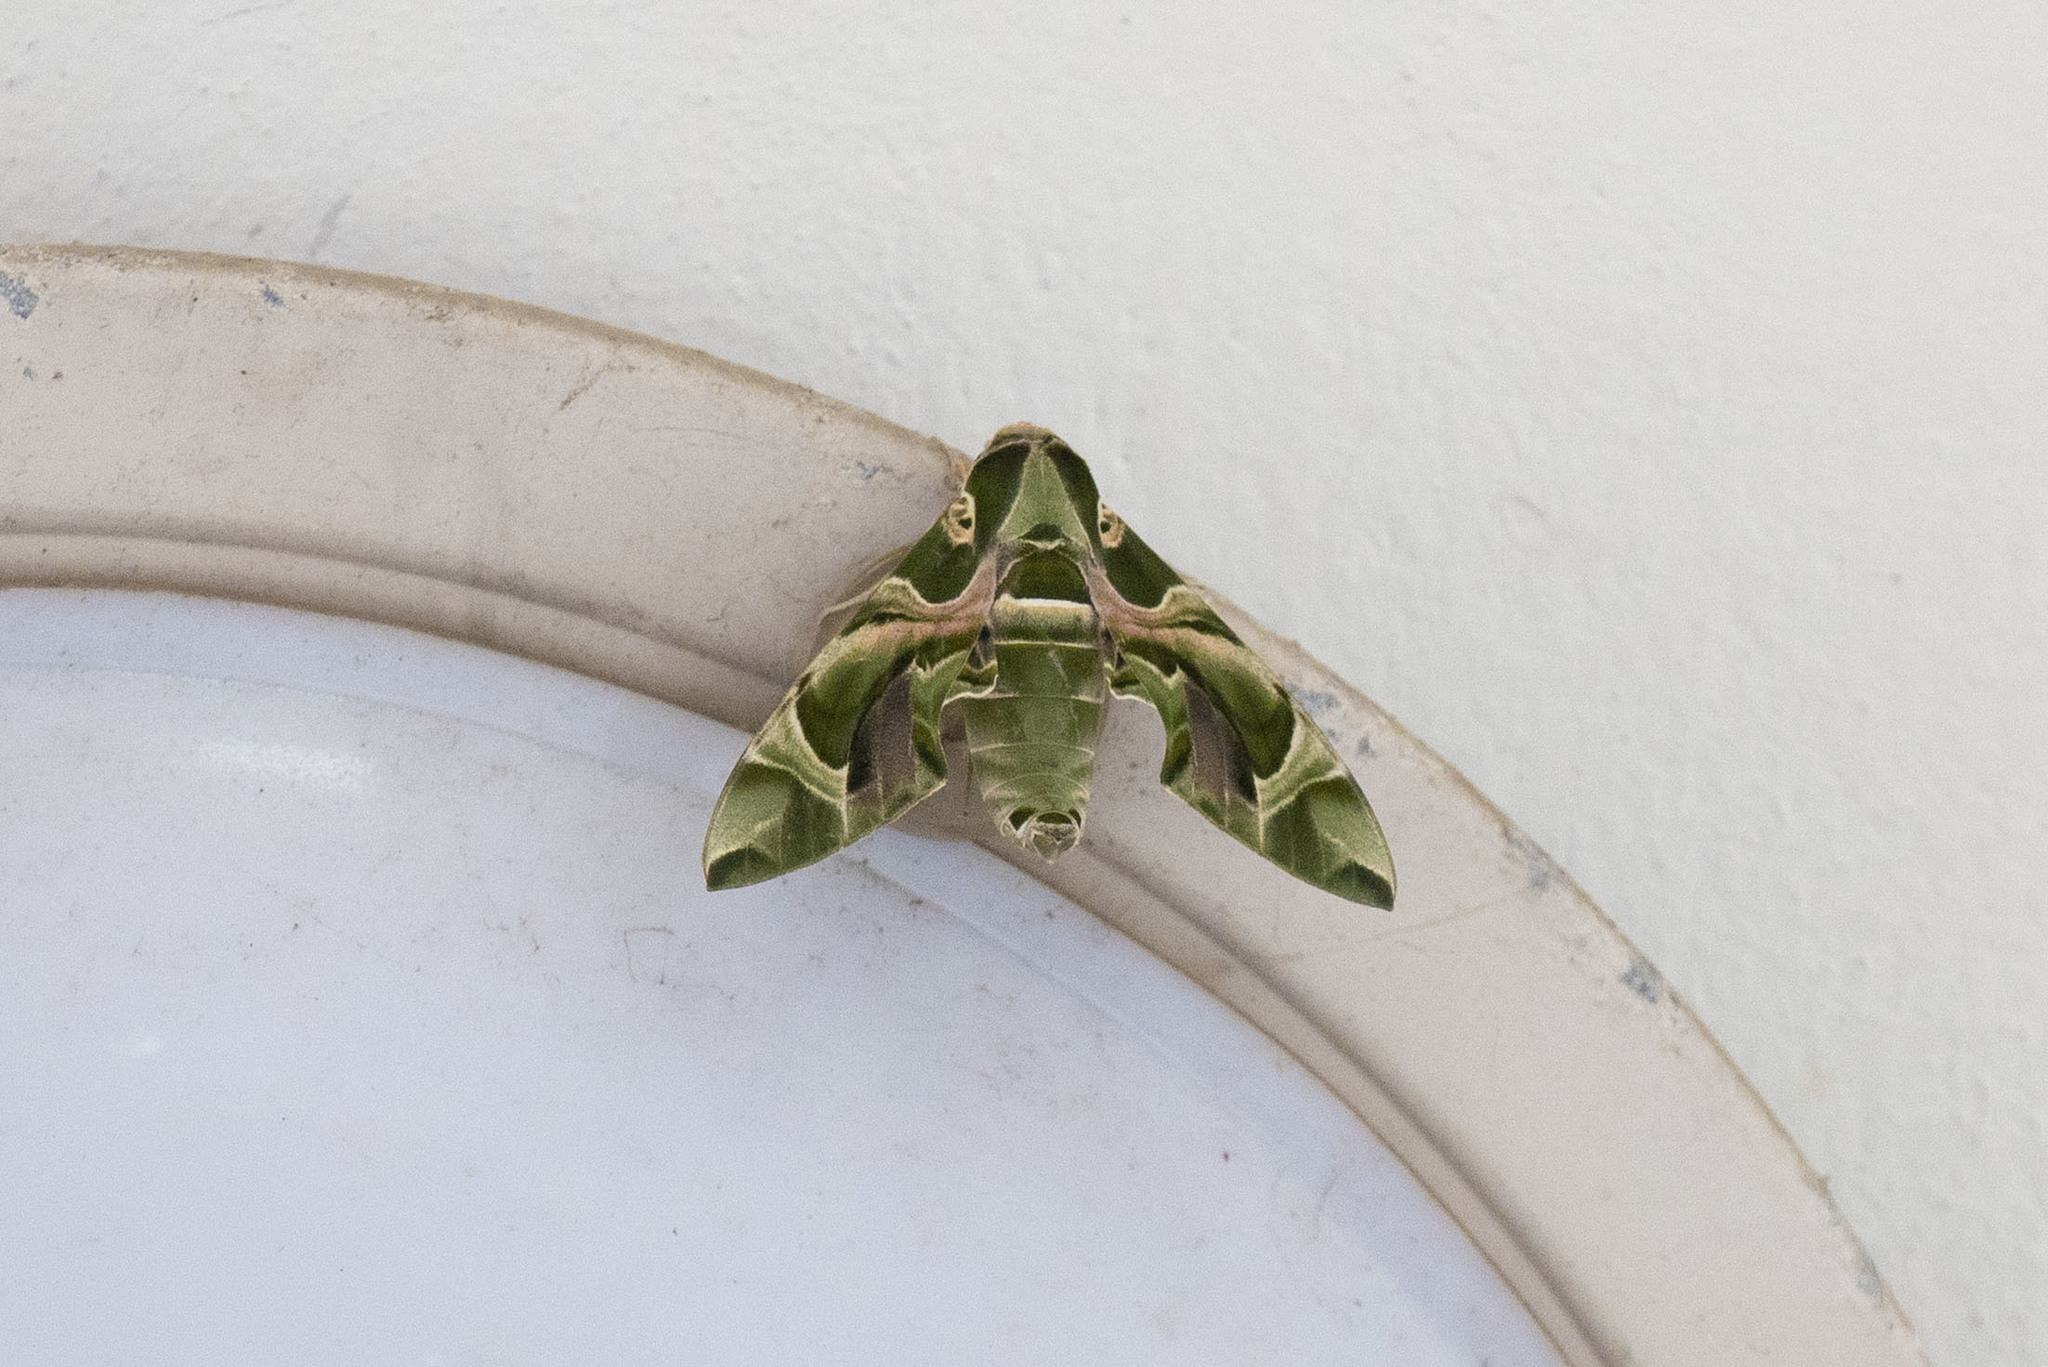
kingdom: Animalia
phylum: Arthropoda
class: Insecta
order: Lepidoptera
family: Sphingidae
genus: Daphnis
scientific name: Daphnis nerii
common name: Oleander hawk-moth
